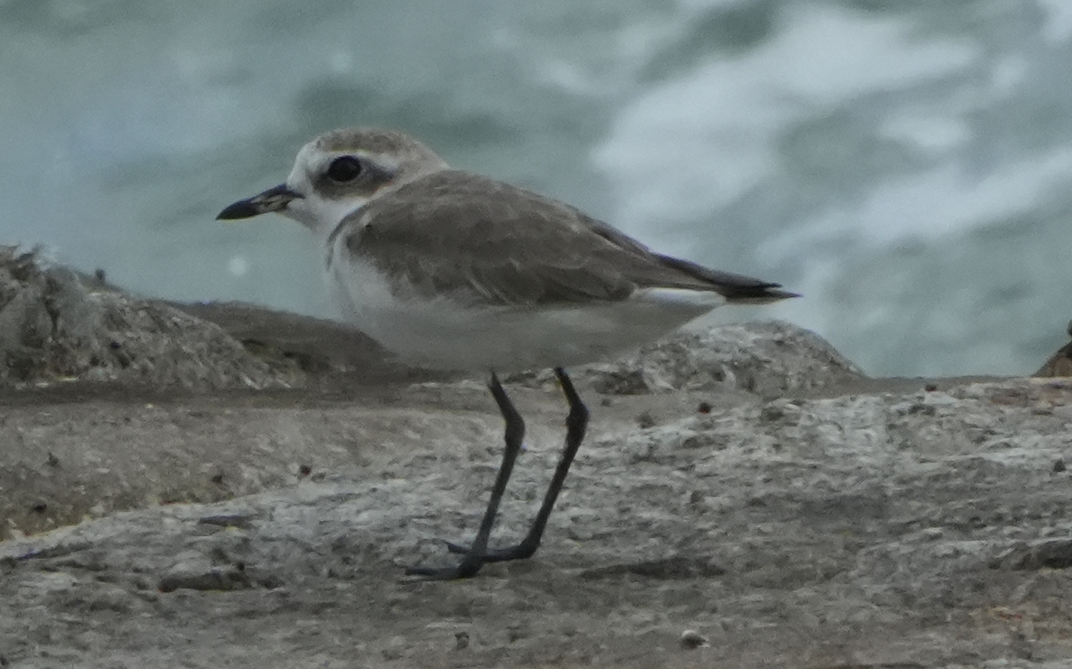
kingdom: Animalia
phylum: Chordata
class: Aves
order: Charadriiformes
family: Charadriidae
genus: Anarhynchus
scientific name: Anarhynchus
